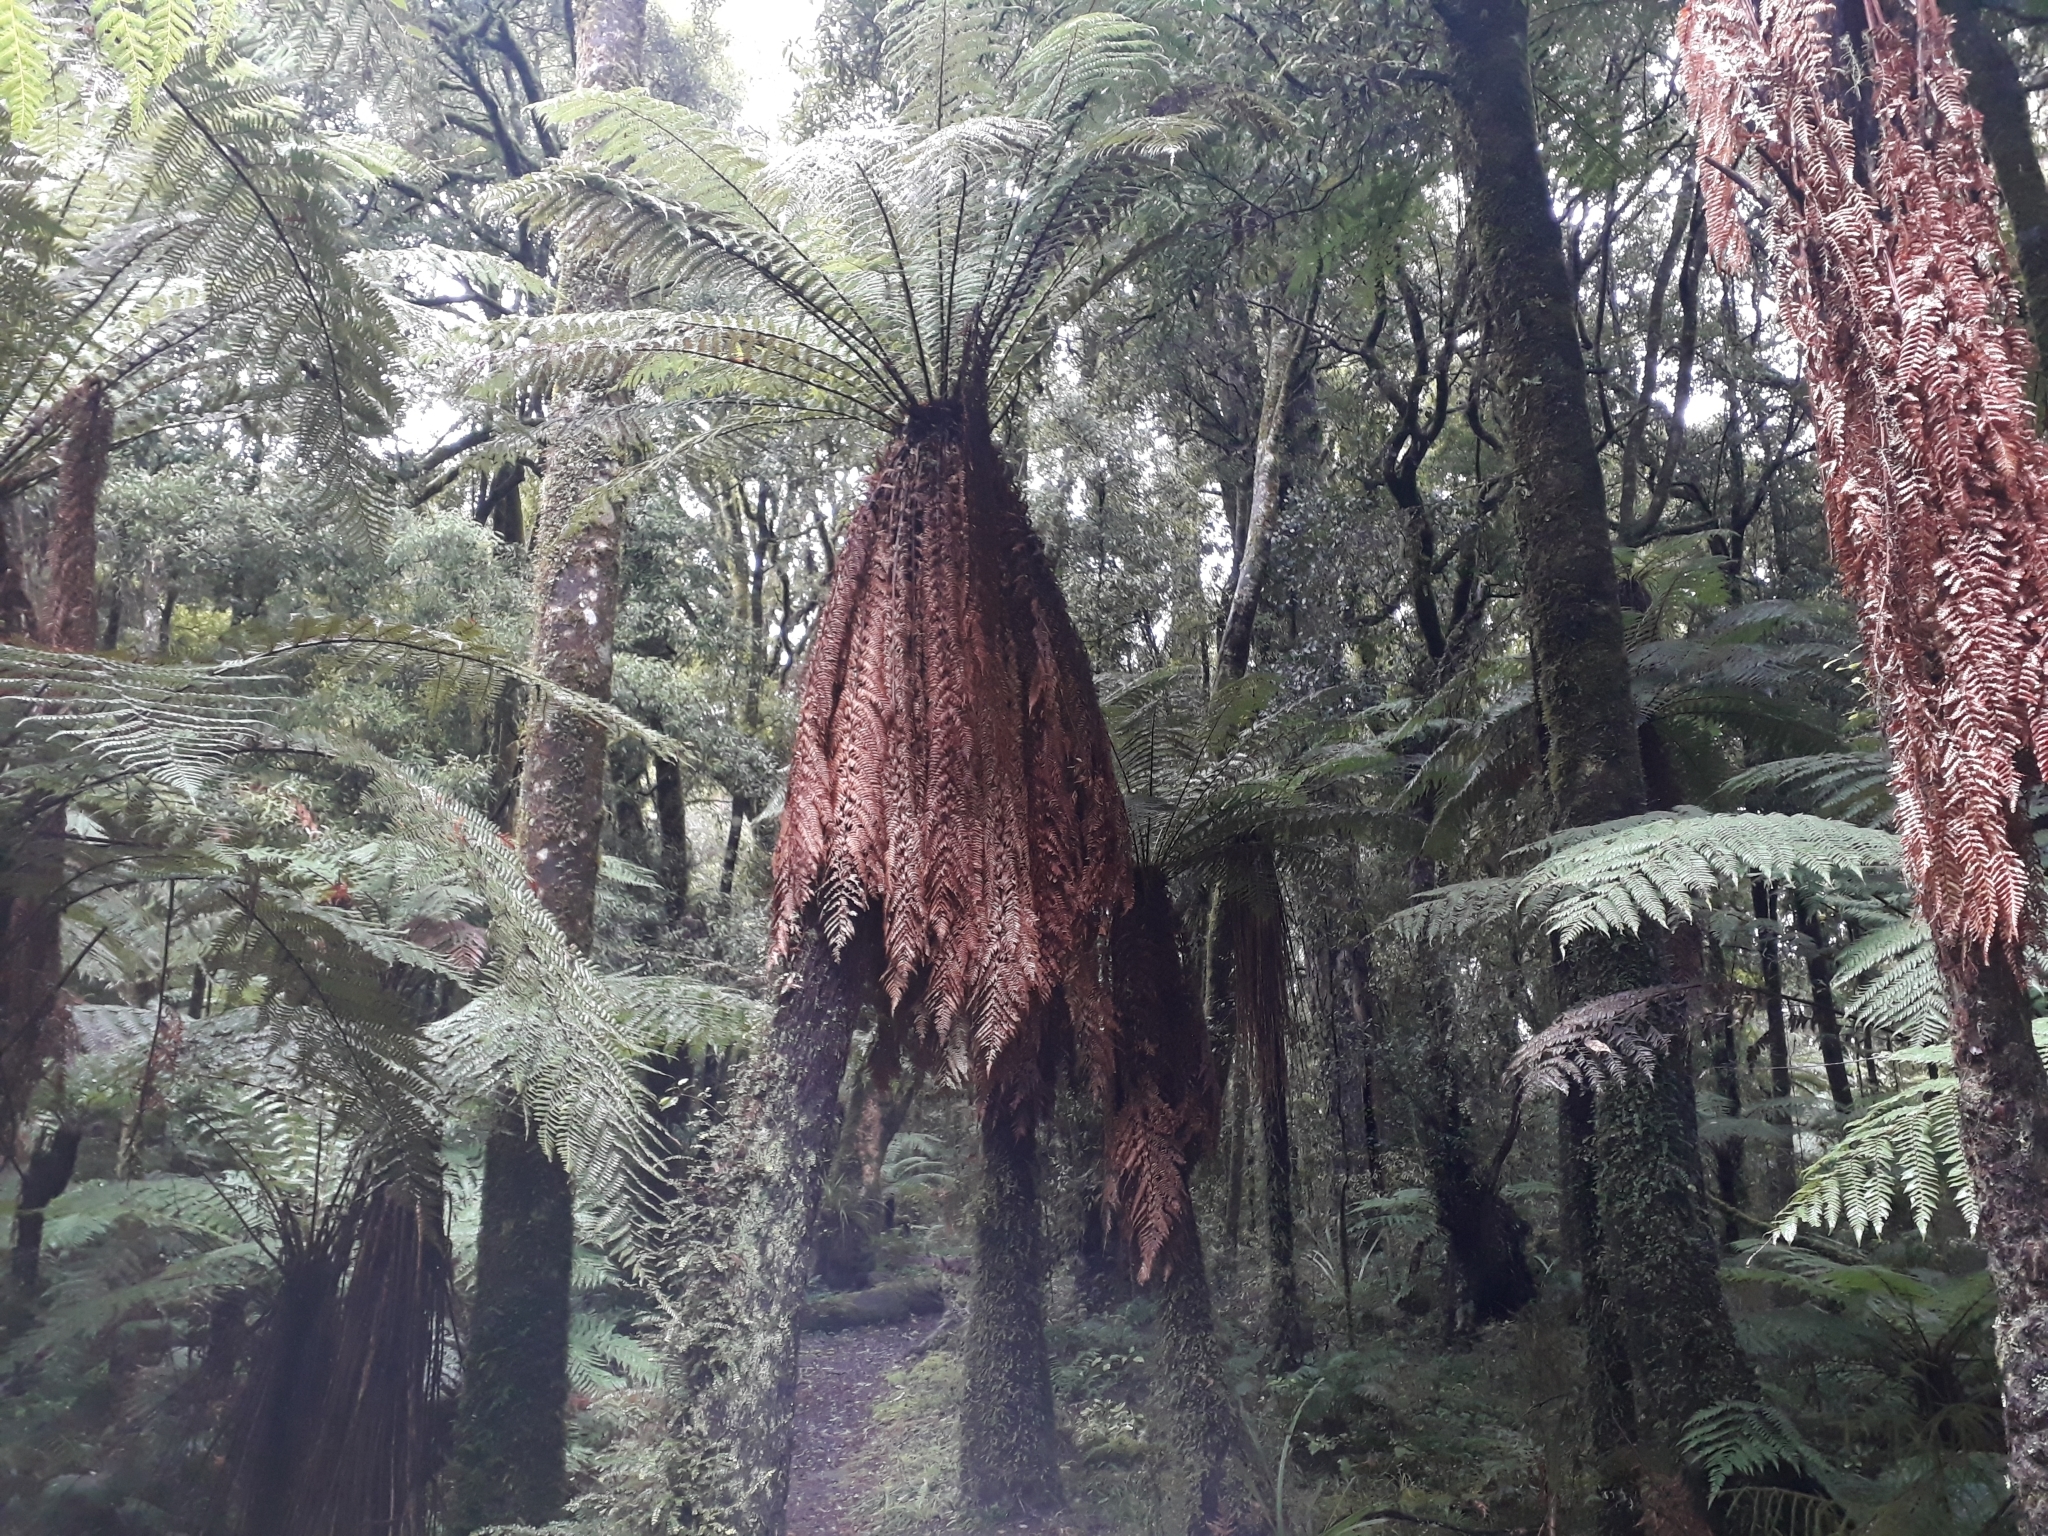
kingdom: Plantae
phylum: Tracheophyta
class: Polypodiopsida
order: Cyatheales
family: Dicksoniaceae
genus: Dicksonia
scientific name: Dicksonia fibrosa
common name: Golden tree fern
